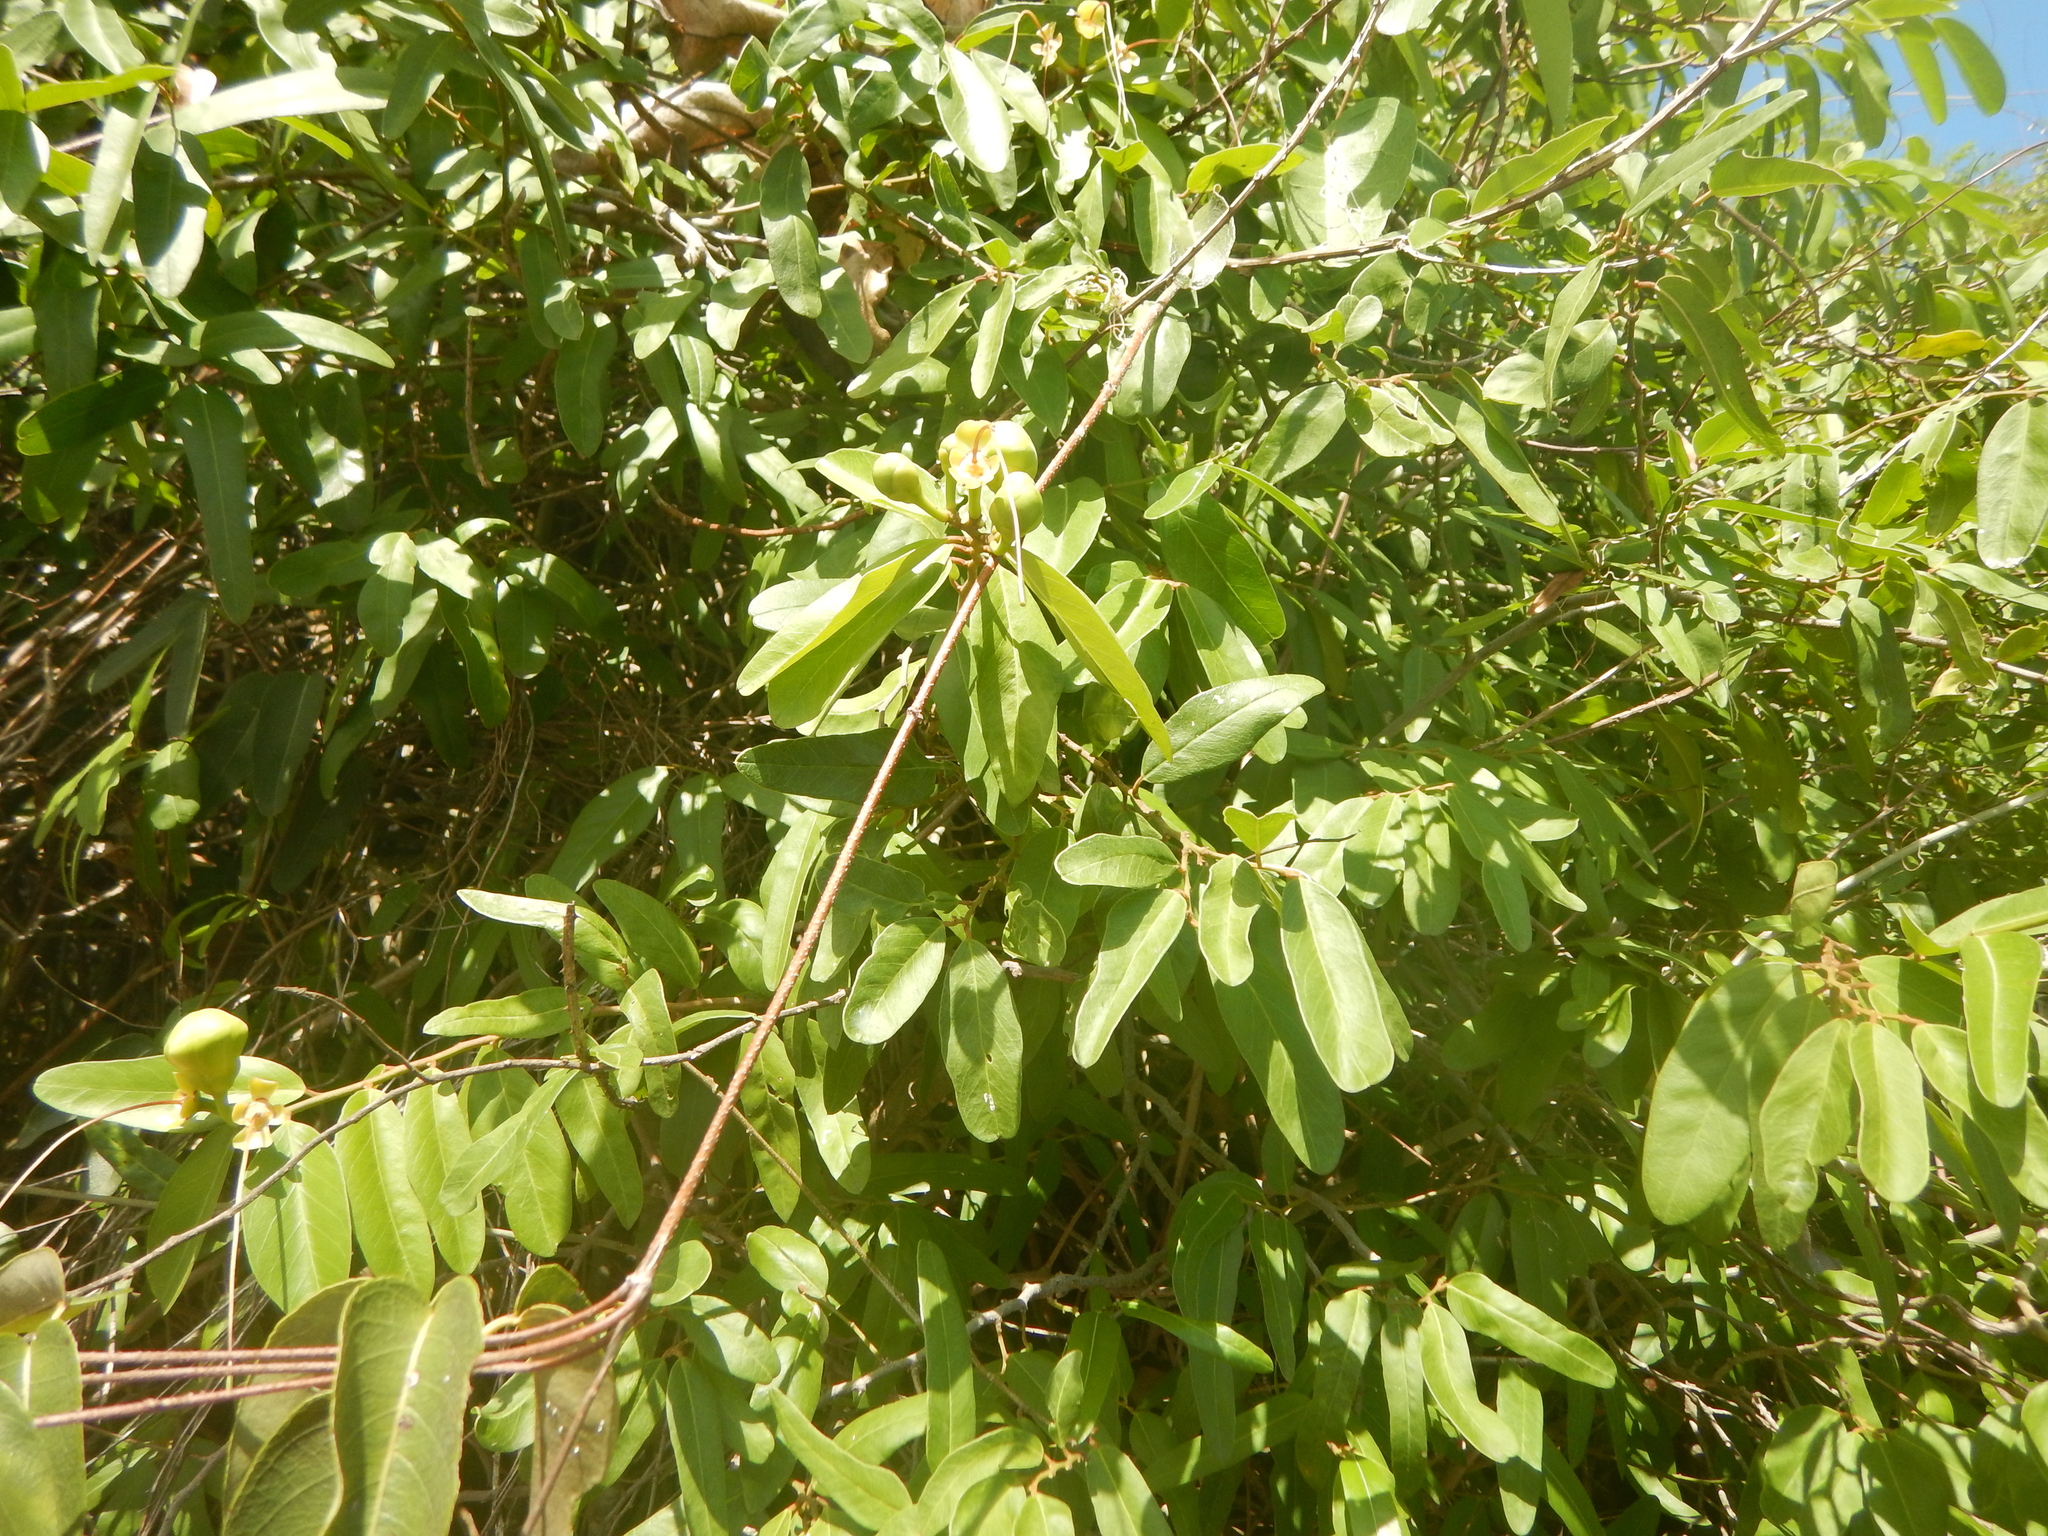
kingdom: Plantae
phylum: Tracheophyta
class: Magnoliopsida
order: Brassicales
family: Capparaceae
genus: Cynophalla
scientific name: Cynophalla flexuosa
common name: Capertree
